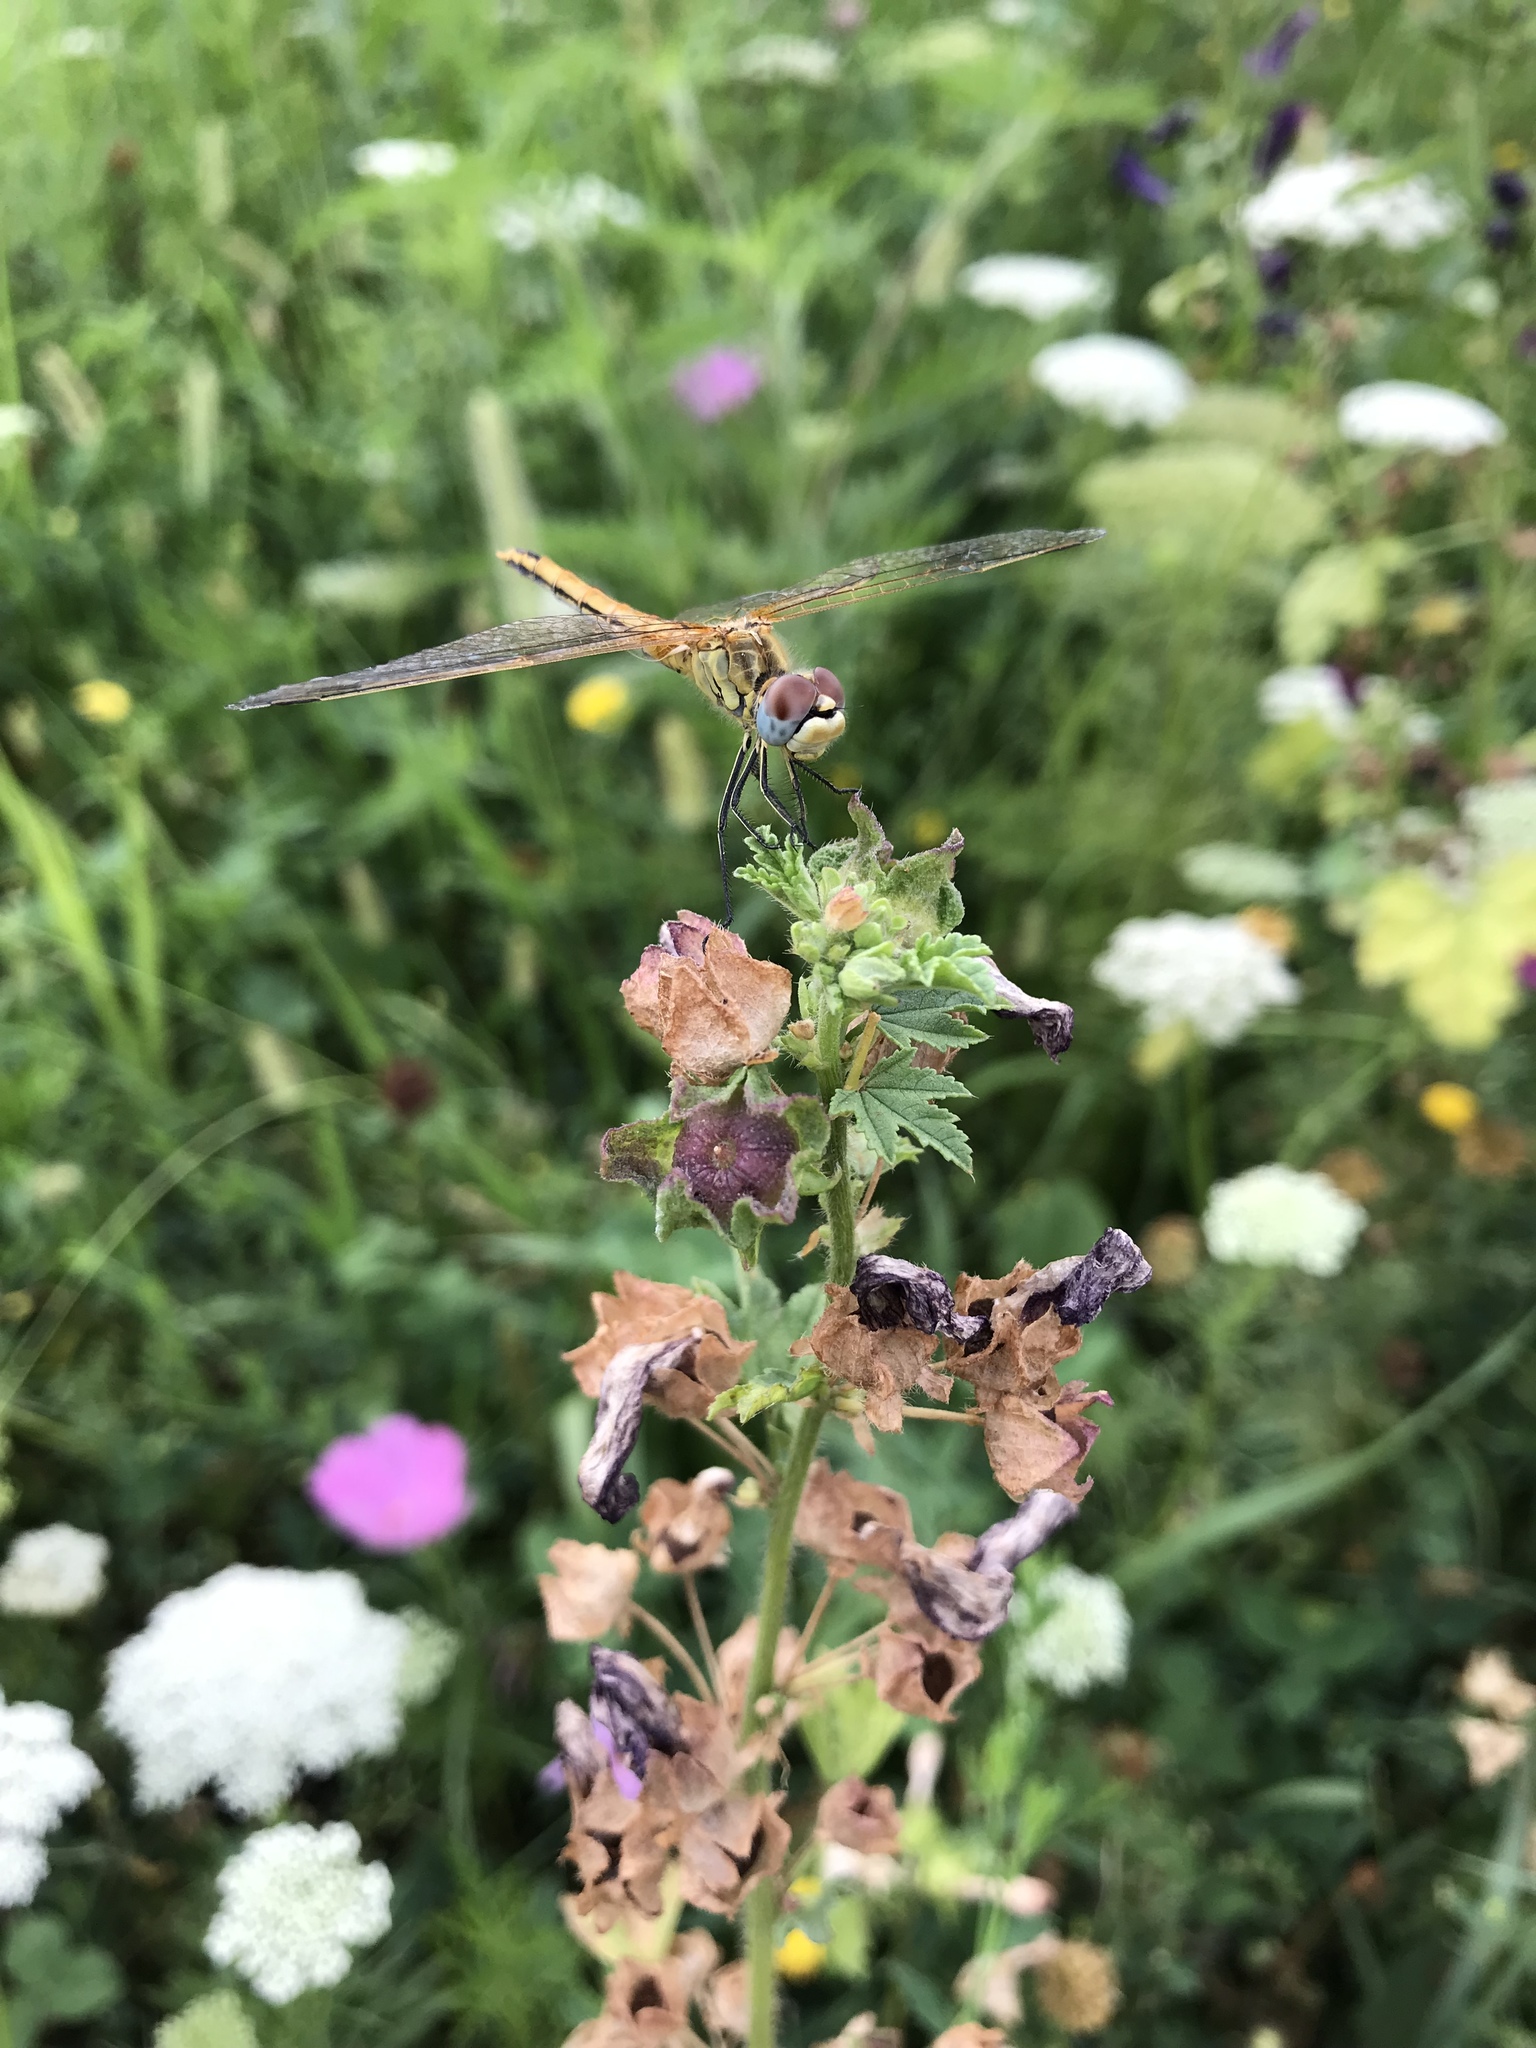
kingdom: Animalia
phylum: Arthropoda
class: Insecta
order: Odonata
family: Libellulidae
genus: Sympetrum
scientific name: Sympetrum fonscolombii
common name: Red-veined darter
